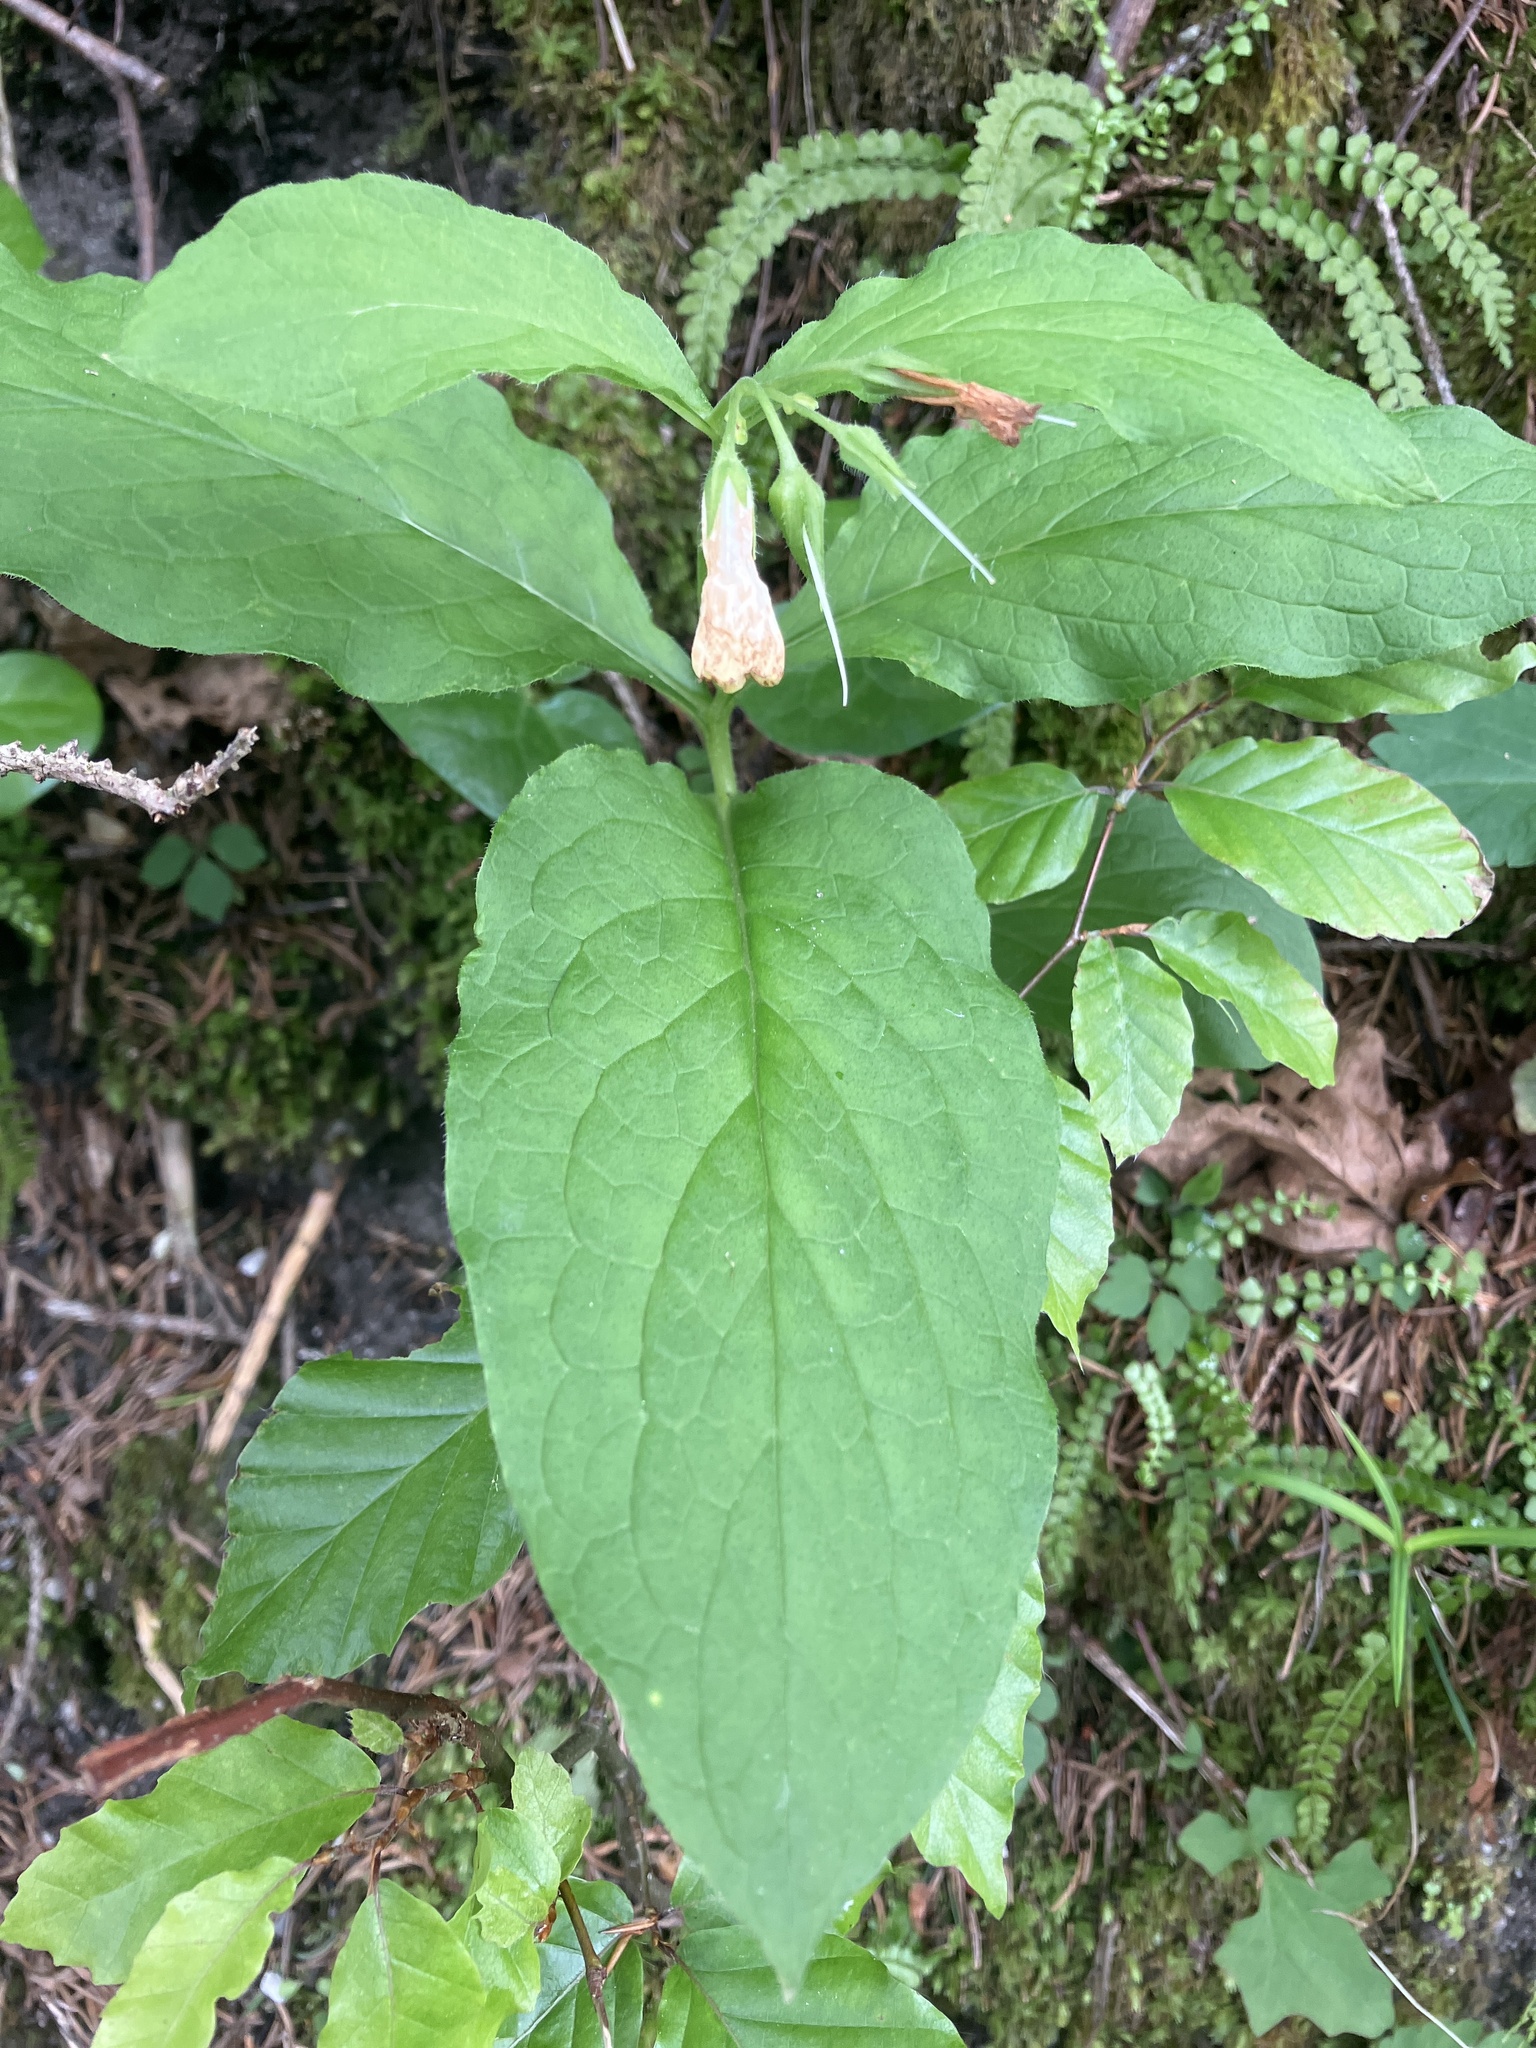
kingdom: Plantae
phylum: Tracheophyta
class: Magnoliopsida
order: Boraginales
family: Boraginaceae
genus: Symphytum
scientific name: Symphytum tuberosum
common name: Tuberous comfrey
